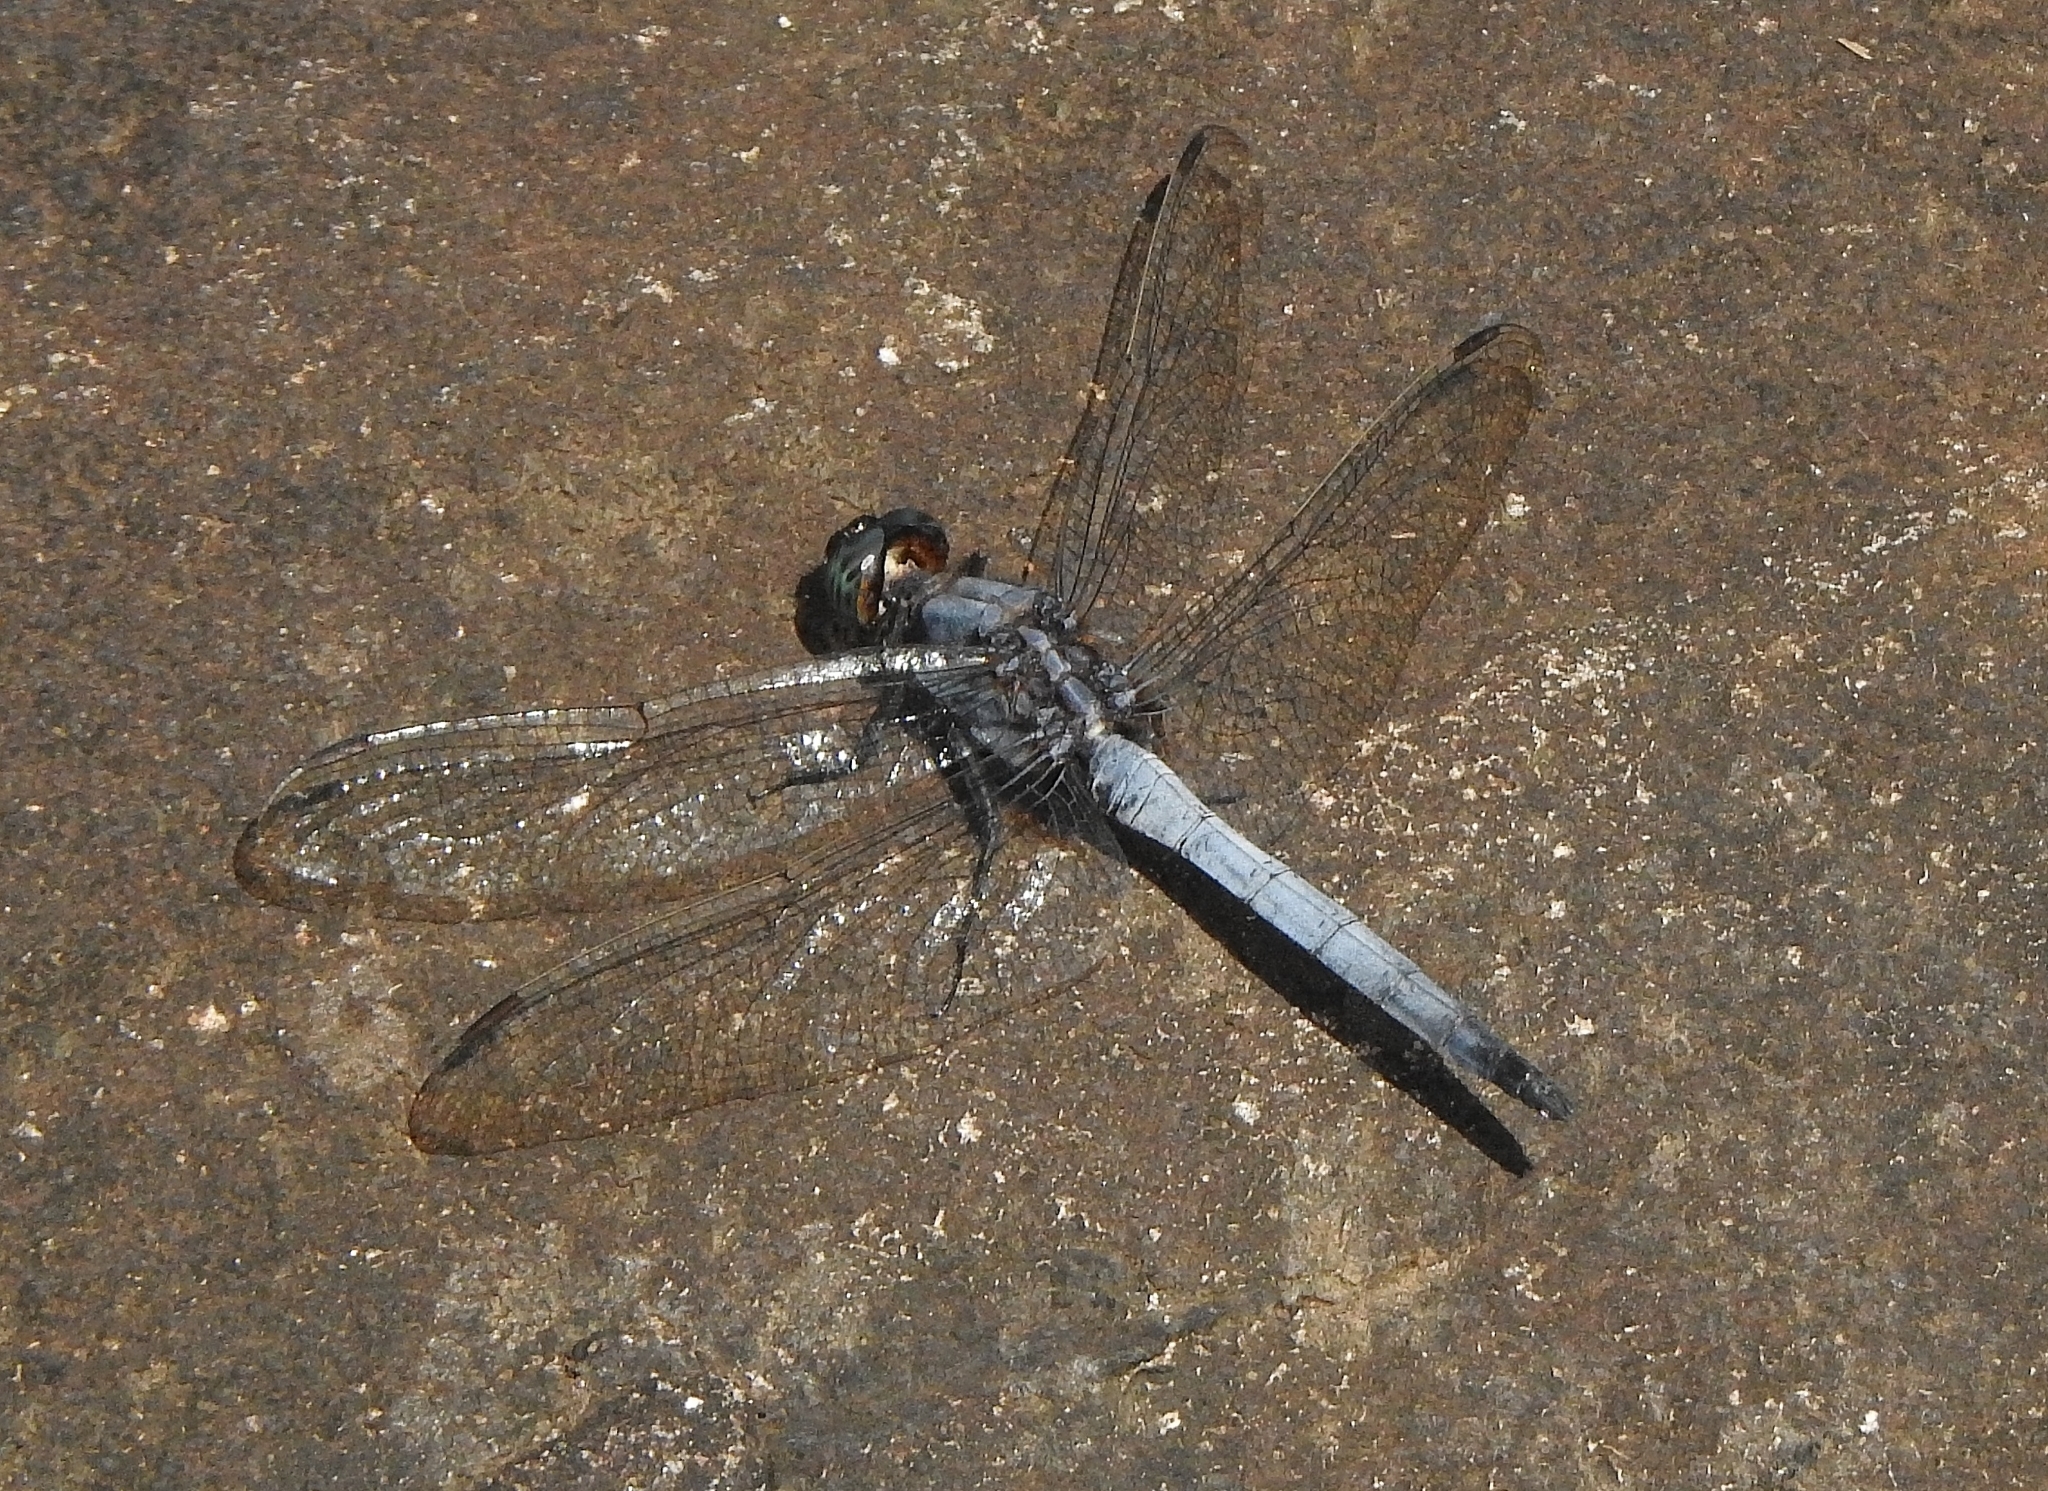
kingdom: Animalia
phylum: Arthropoda
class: Insecta
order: Odonata
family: Libellulidae
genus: Orthetrum
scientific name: Orthetrum glaucum
